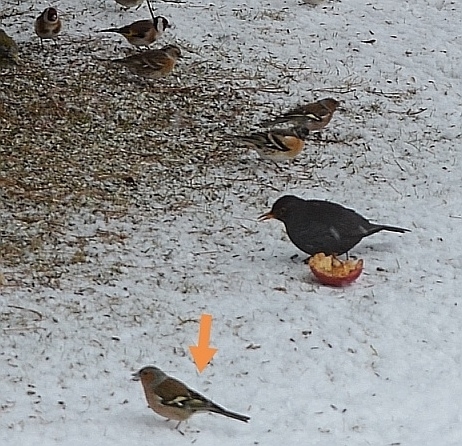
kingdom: Animalia
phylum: Chordata
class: Aves
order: Passeriformes
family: Fringillidae
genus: Fringilla
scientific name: Fringilla coelebs
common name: Common chaffinch
